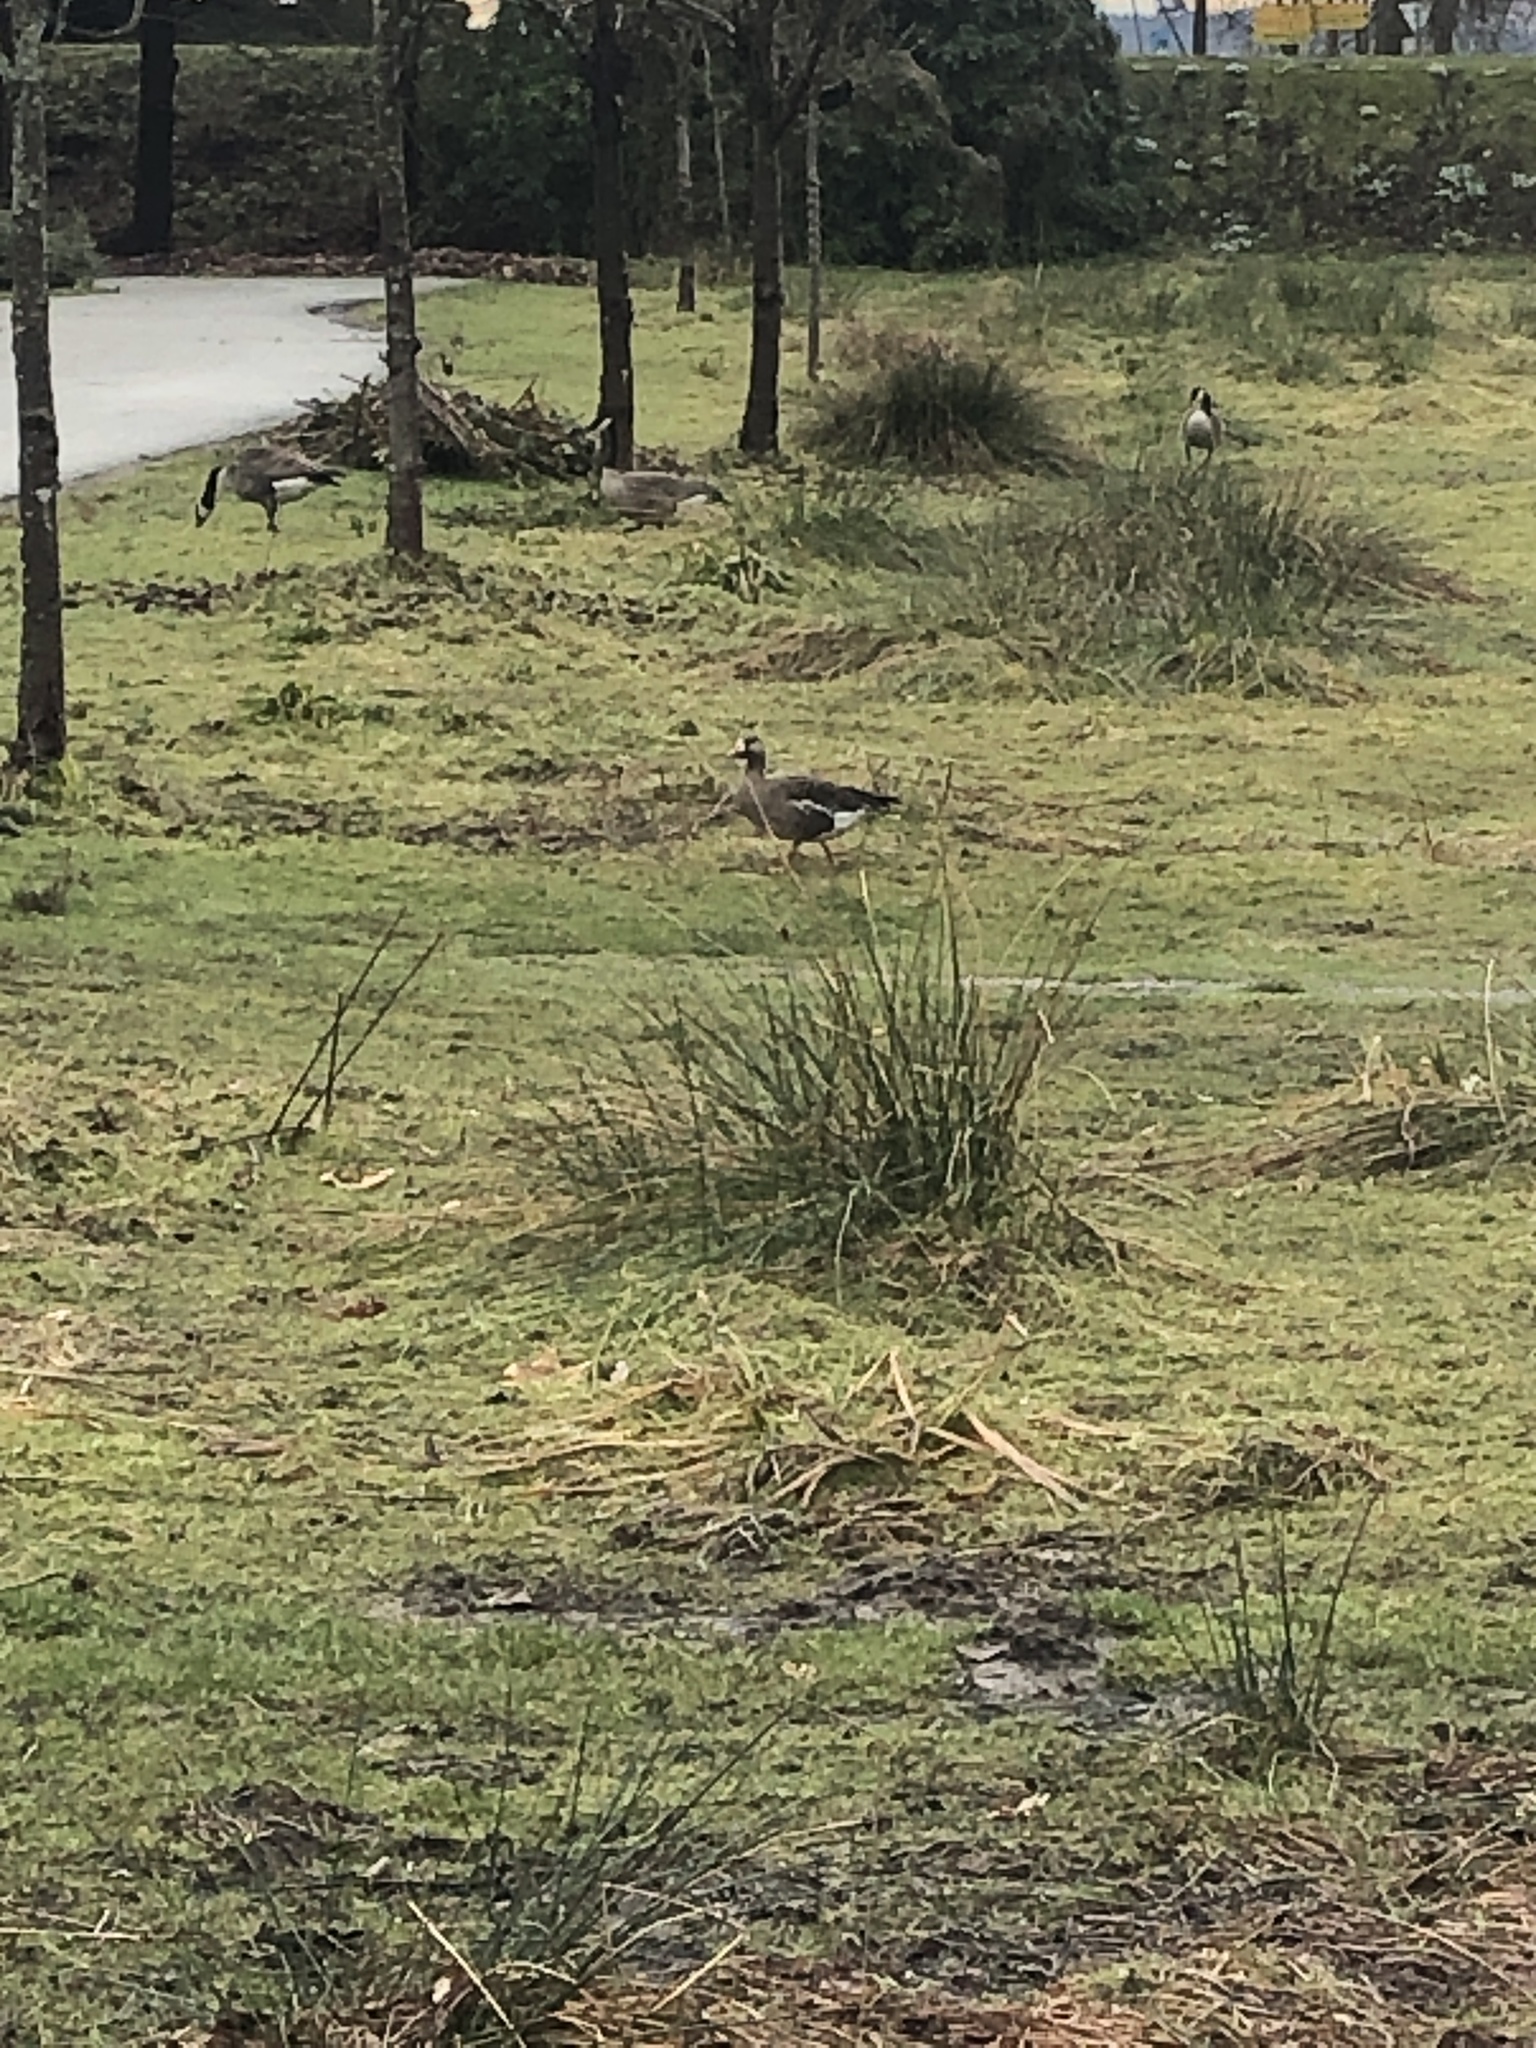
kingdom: Animalia
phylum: Chordata
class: Aves
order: Anseriformes
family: Anatidae
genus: Anser
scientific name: Anser albifrons
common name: Greater white-fronted goose
